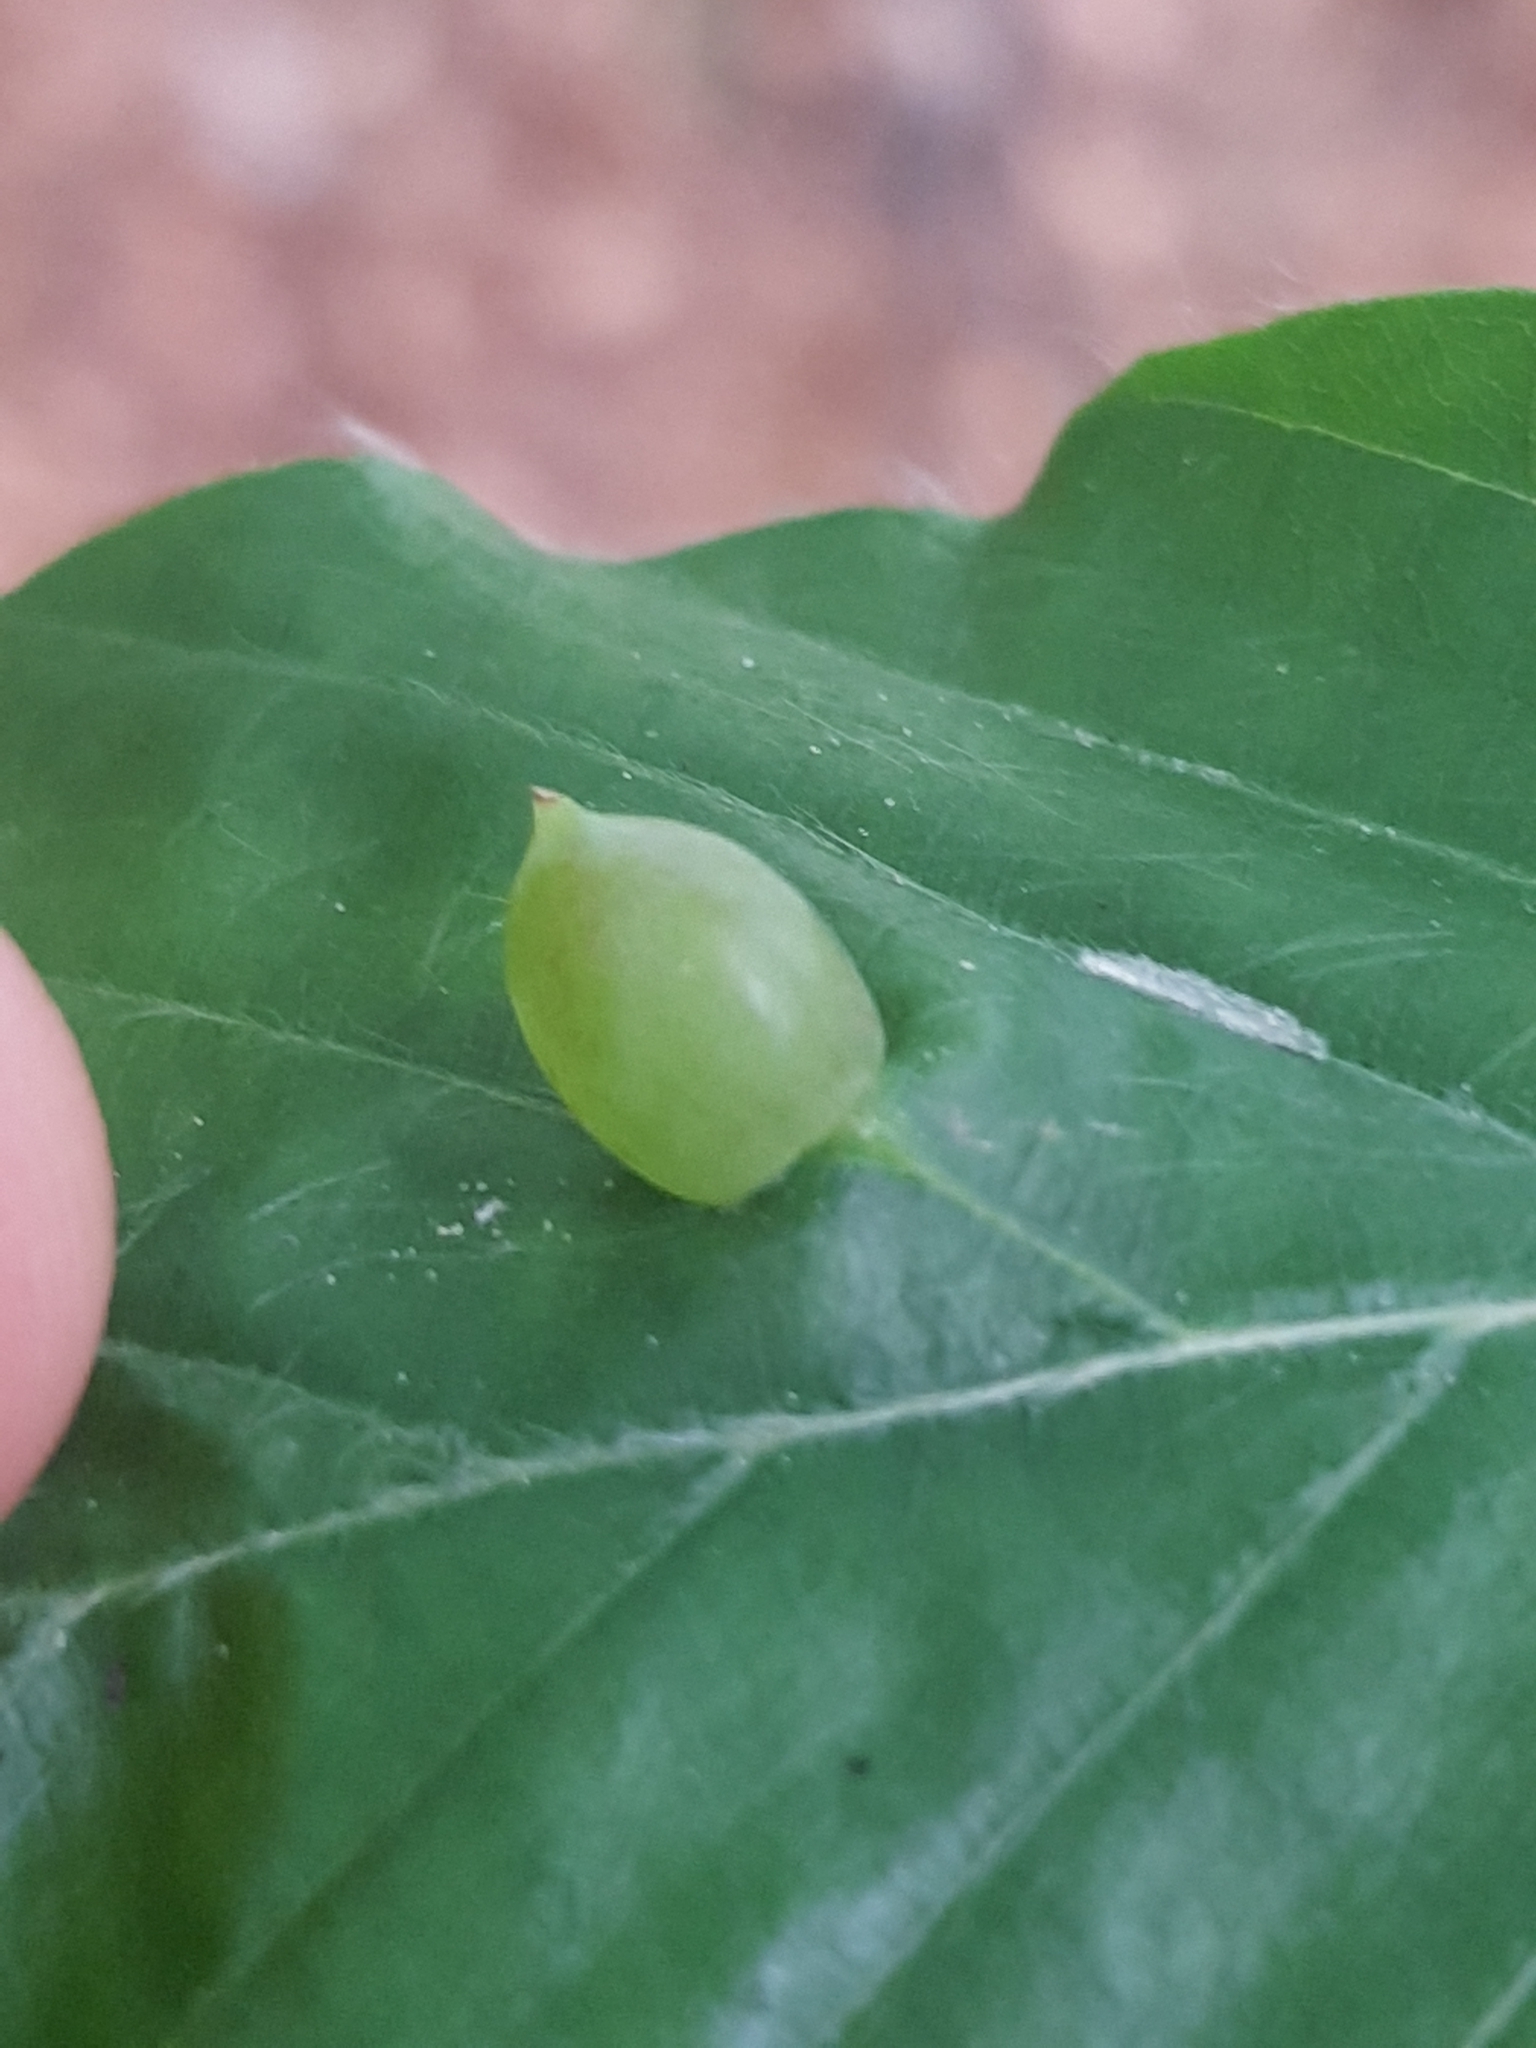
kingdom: Animalia
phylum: Arthropoda
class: Insecta
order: Diptera
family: Cecidomyiidae
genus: Mikiola
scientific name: Mikiola fagi
